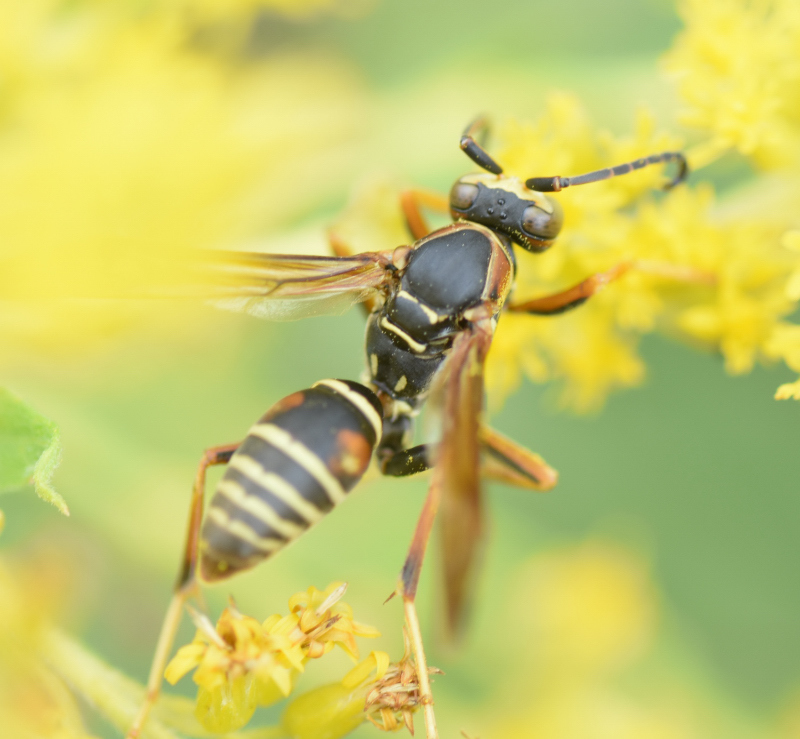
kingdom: Animalia
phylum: Arthropoda
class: Insecta
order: Hymenoptera
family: Eumenidae
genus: Polistes
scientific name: Polistes fuscatus
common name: Dark paper wasp
